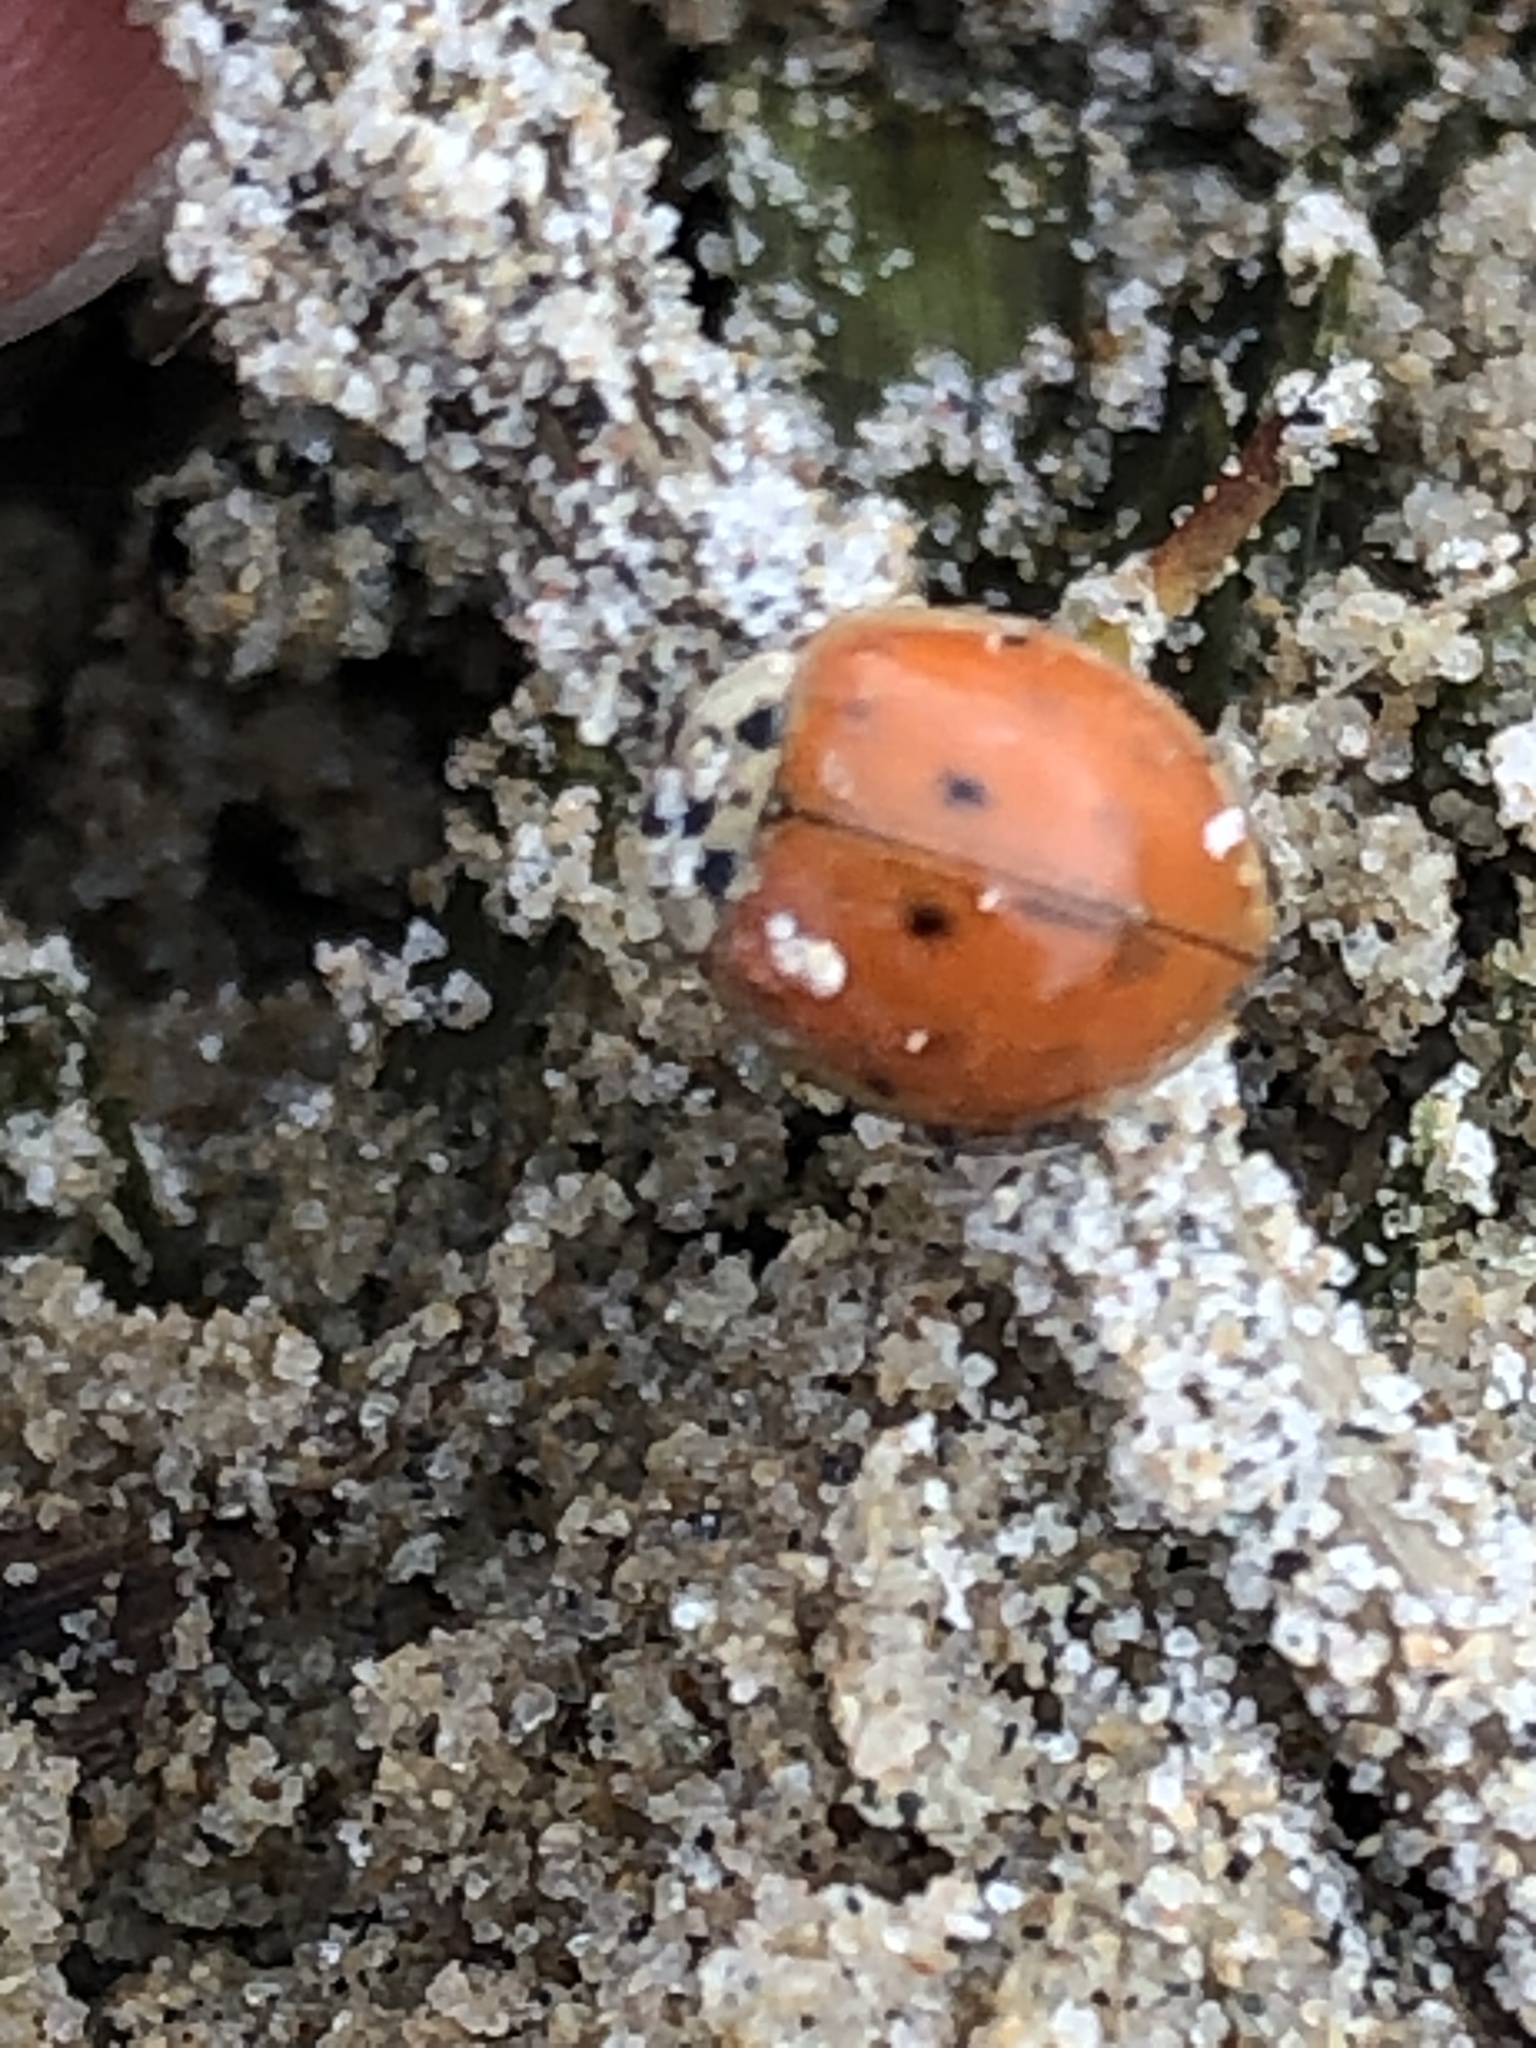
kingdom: Animalia
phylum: Arthropoda
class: Insecta
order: Coleoptera
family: Coccinellidae
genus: Harmonia
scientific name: Harmonia axyridis
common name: Harlequin ladybird
